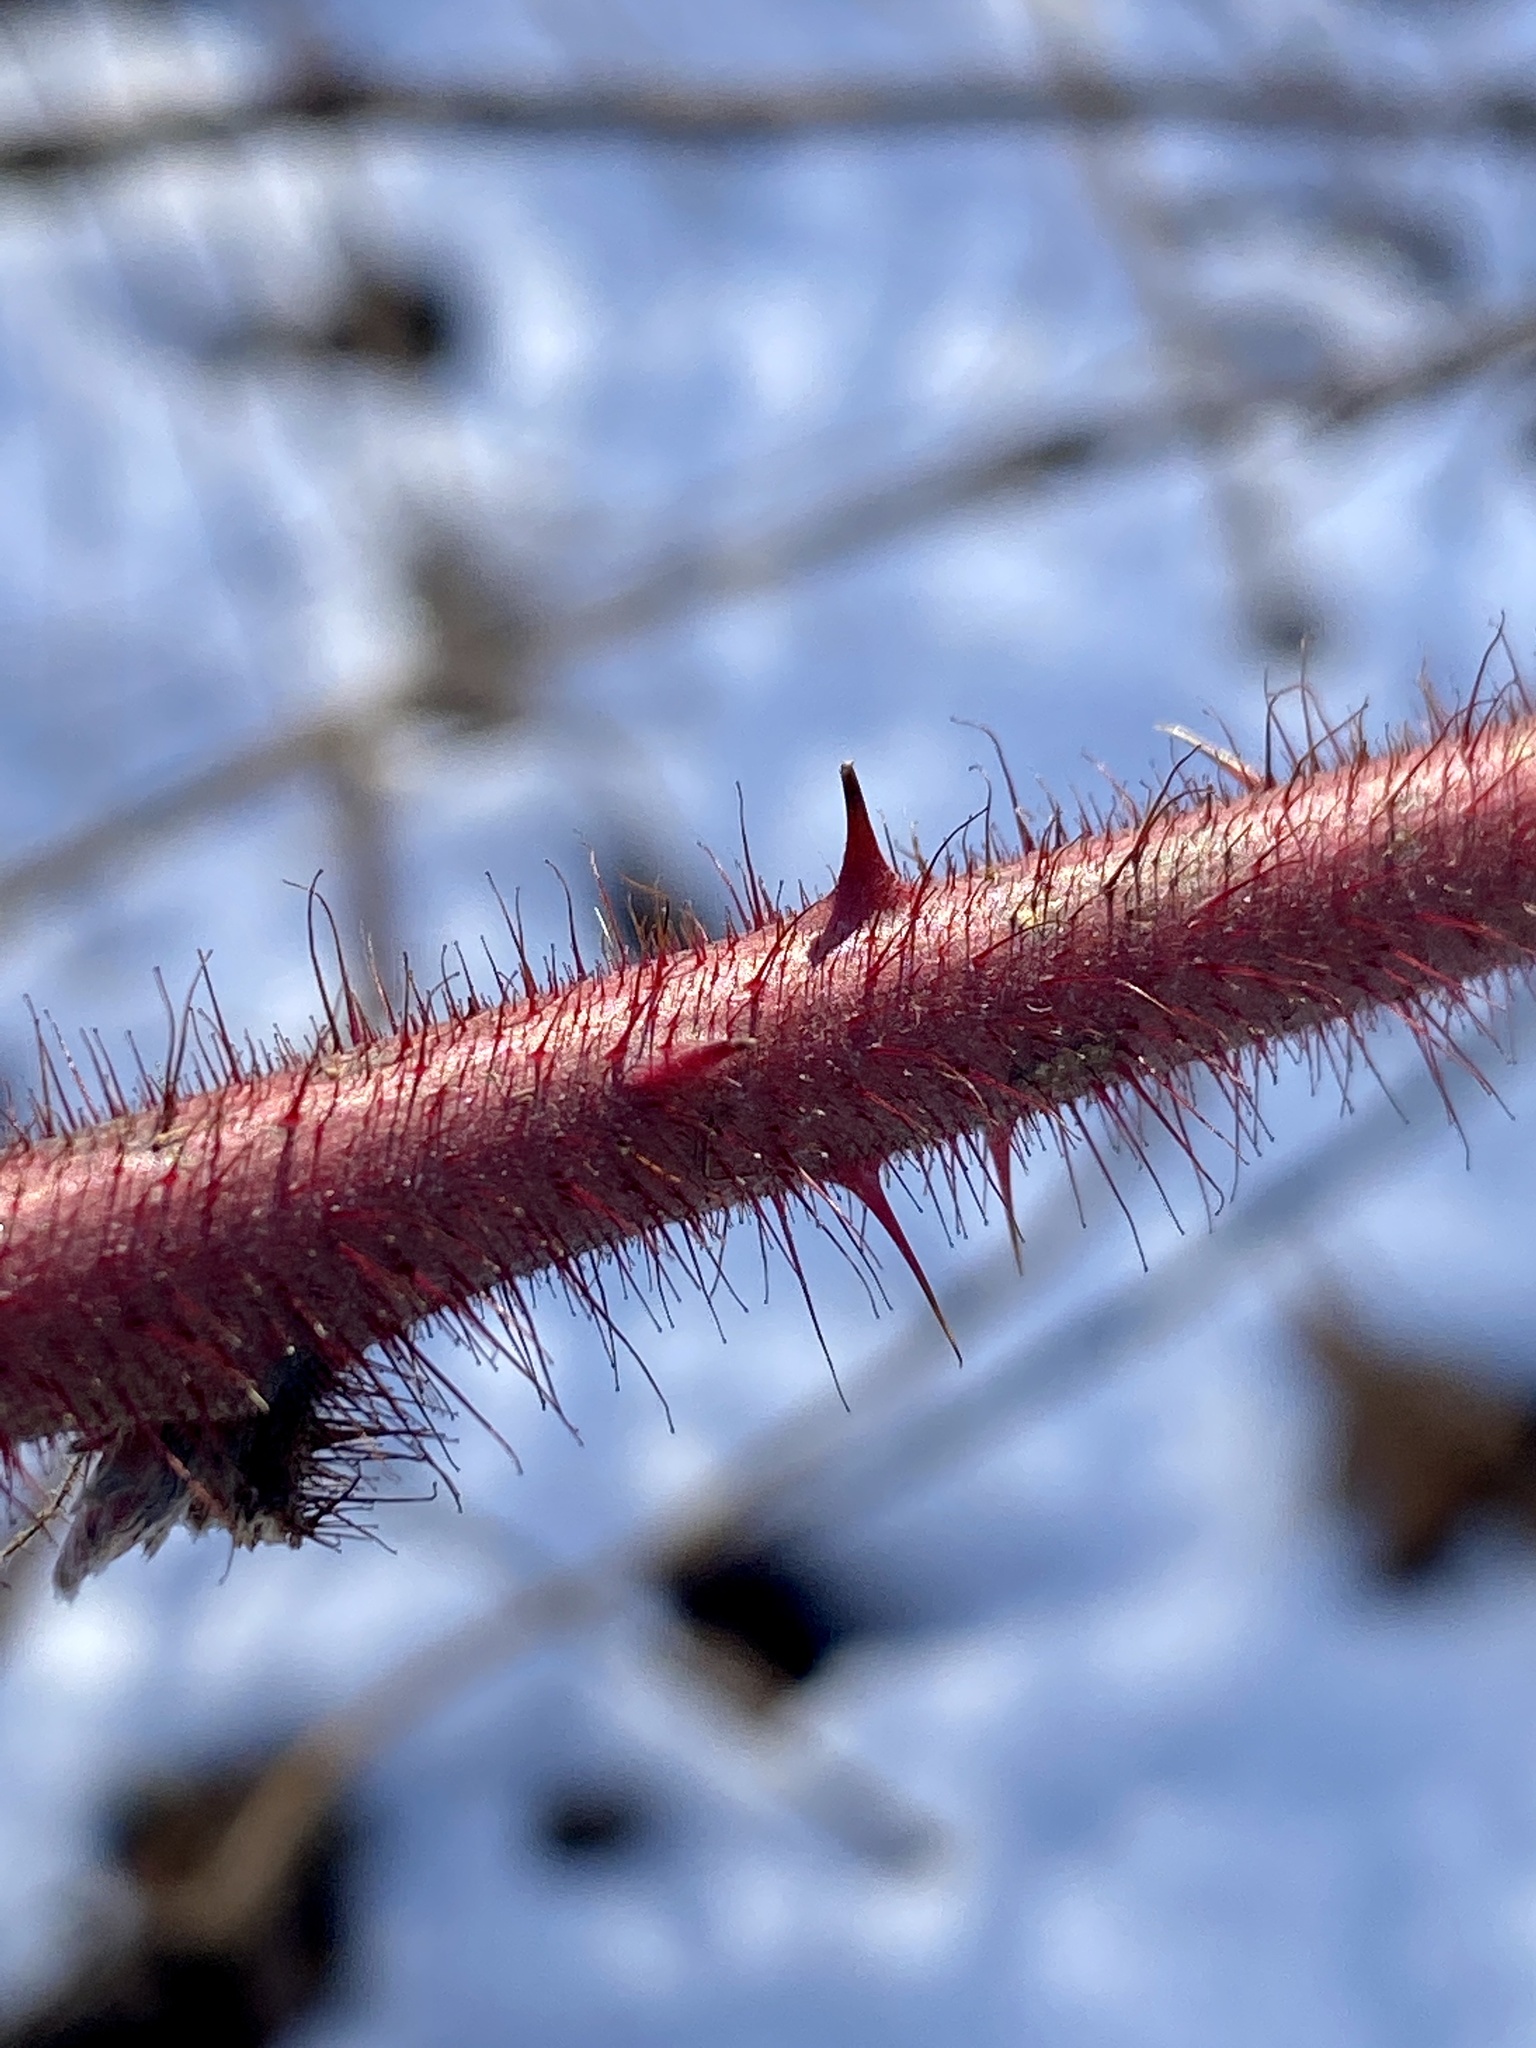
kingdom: Plantae
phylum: Tracheophyta
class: Magnoliopsida
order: Rosales
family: Rosaceae
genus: Rubus
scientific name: Rubus phoenicolasius
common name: Japanese wineberry
